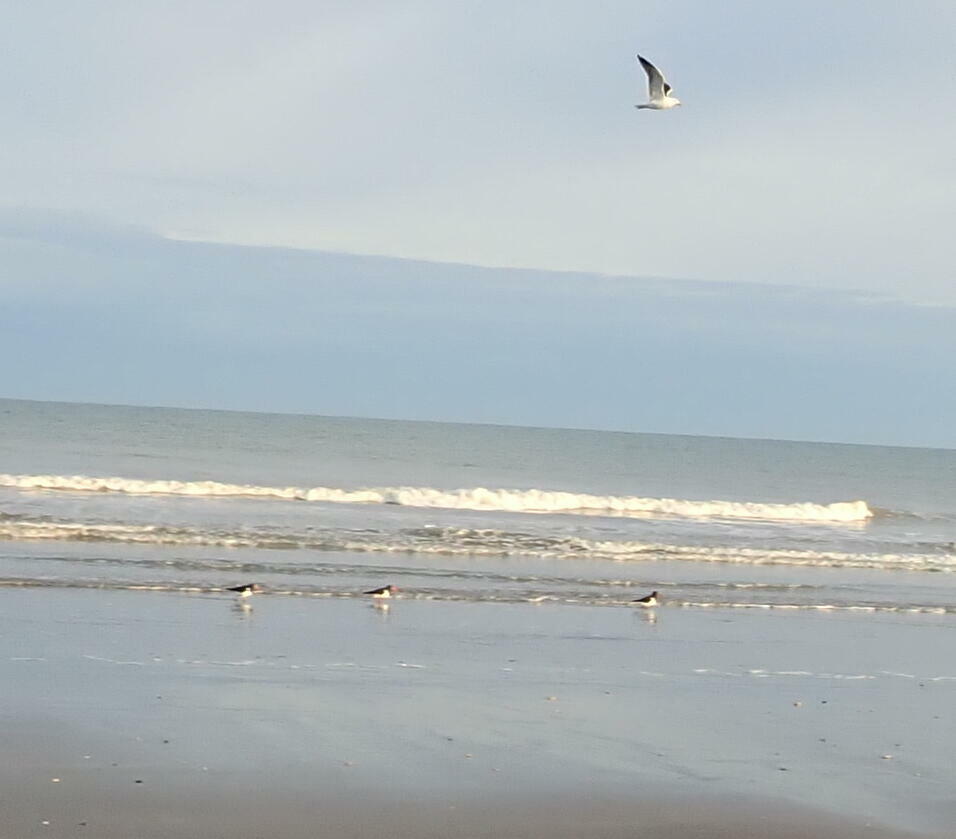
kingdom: Animalia
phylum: Chordata
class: Aves
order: Charadriiformes
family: Haematopodidae
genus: Haematopus
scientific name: Haematopus finschi
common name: South island oystercatcher
